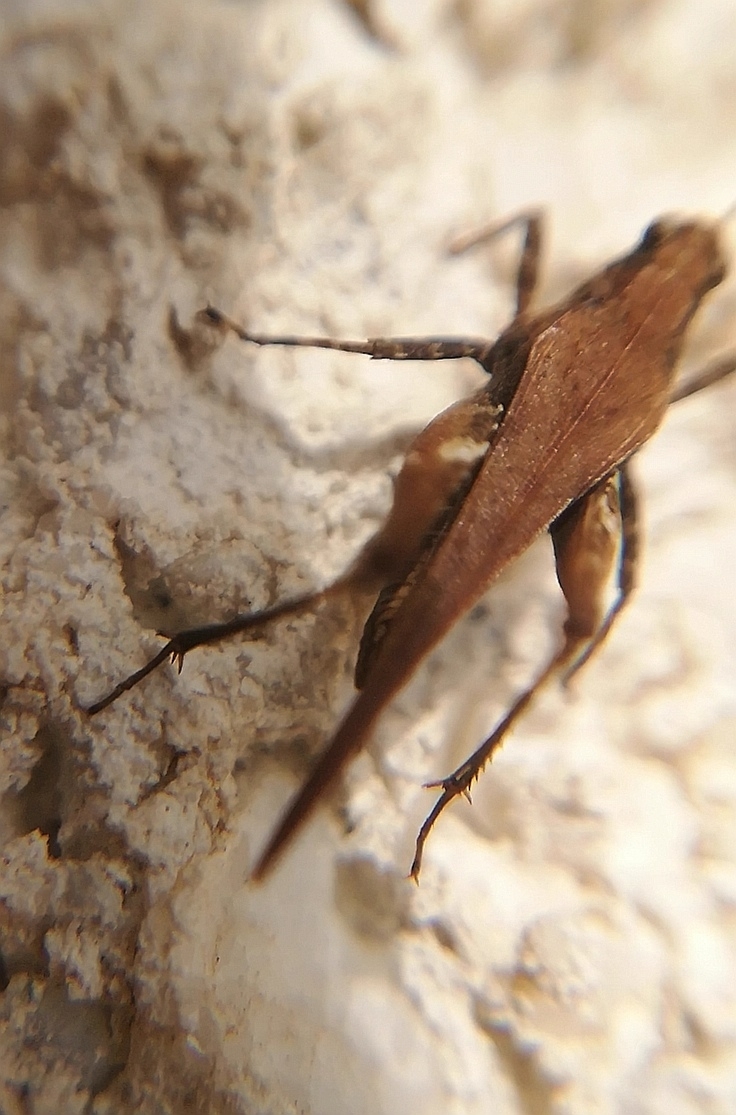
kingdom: Animalia
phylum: Arthropoda
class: Insecta
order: Orthoptera
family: Tetrigidae
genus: Tetrix
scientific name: Tetrix subulata
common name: Slender ground-hopper
